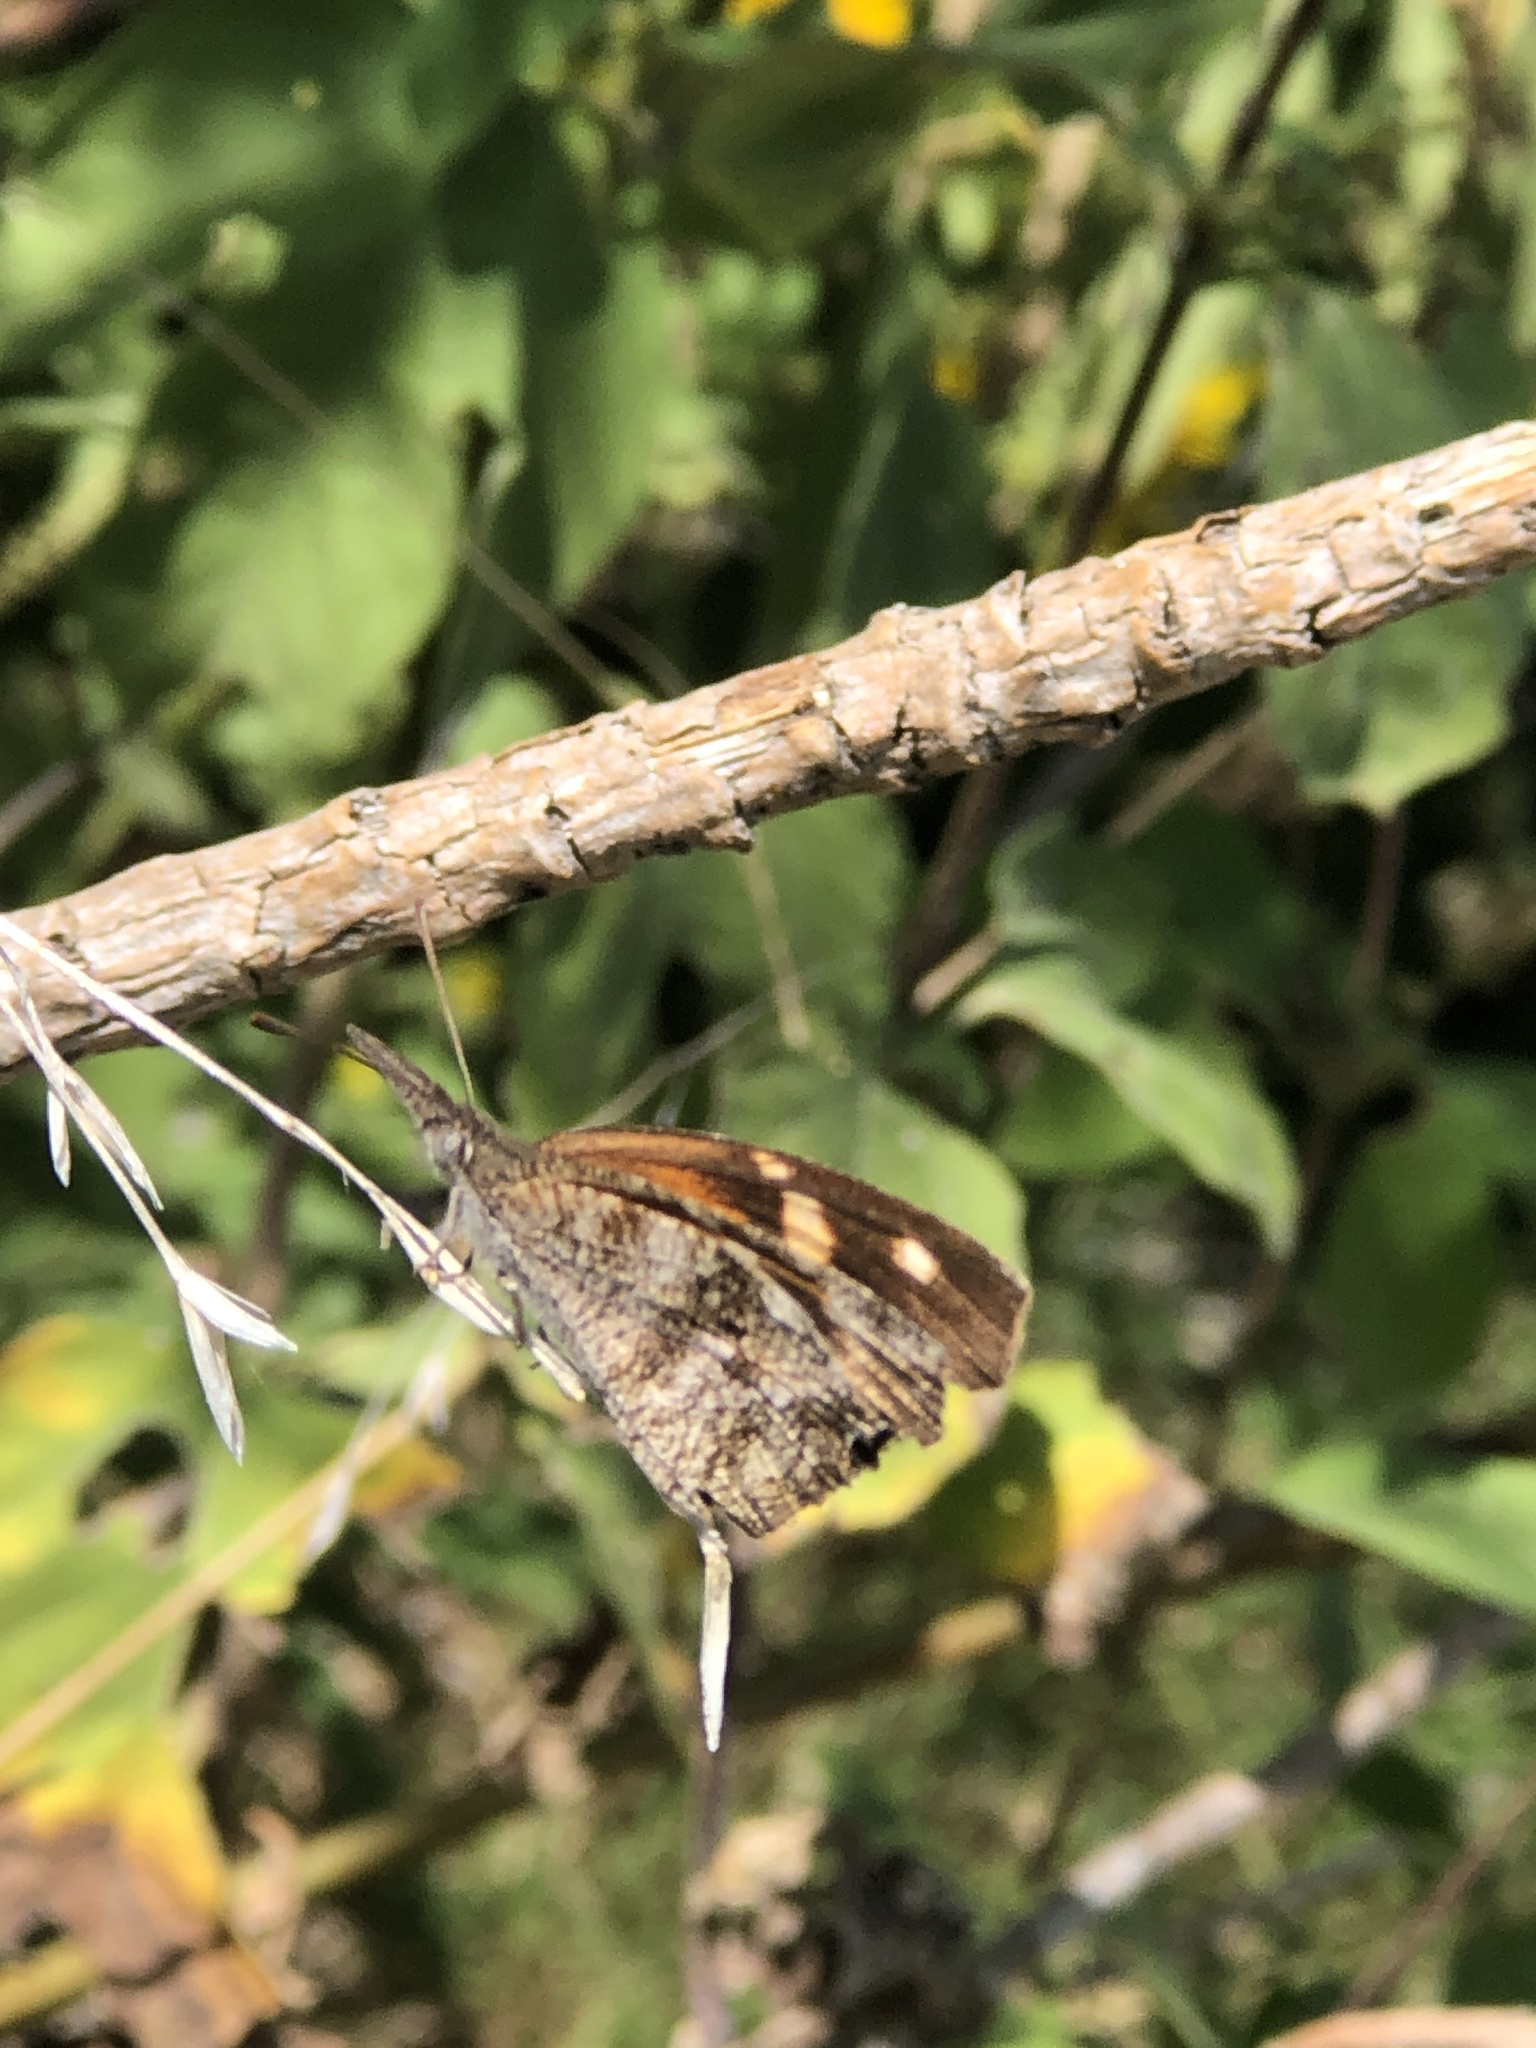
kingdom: Animalia
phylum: Arthropoda
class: Insecta
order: Lepidoptera
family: Nymphalidae
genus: Libytheana
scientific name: Libytheana carinenta
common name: American snout
